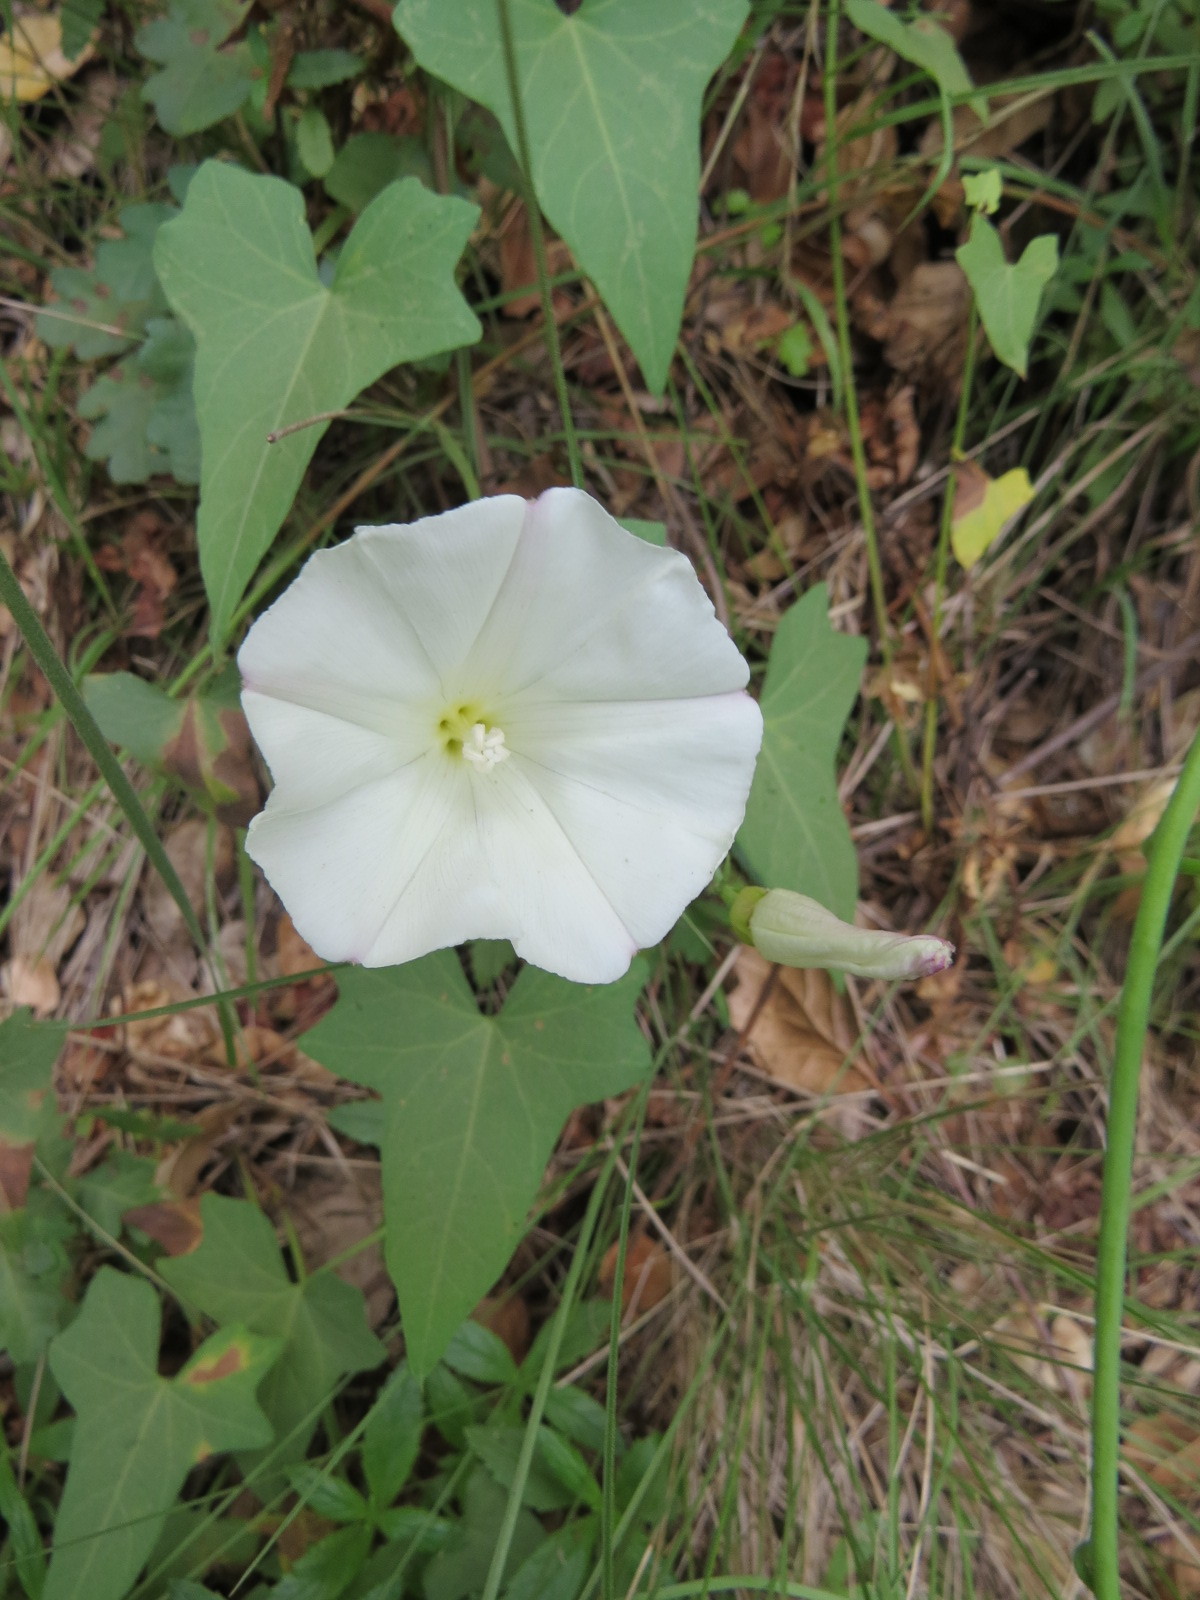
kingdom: Plantae
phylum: Tracheophyta
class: Magnoliopsida
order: Solanales
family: Convolvulaceae
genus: Calystegia
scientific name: Calystegia purpurata
